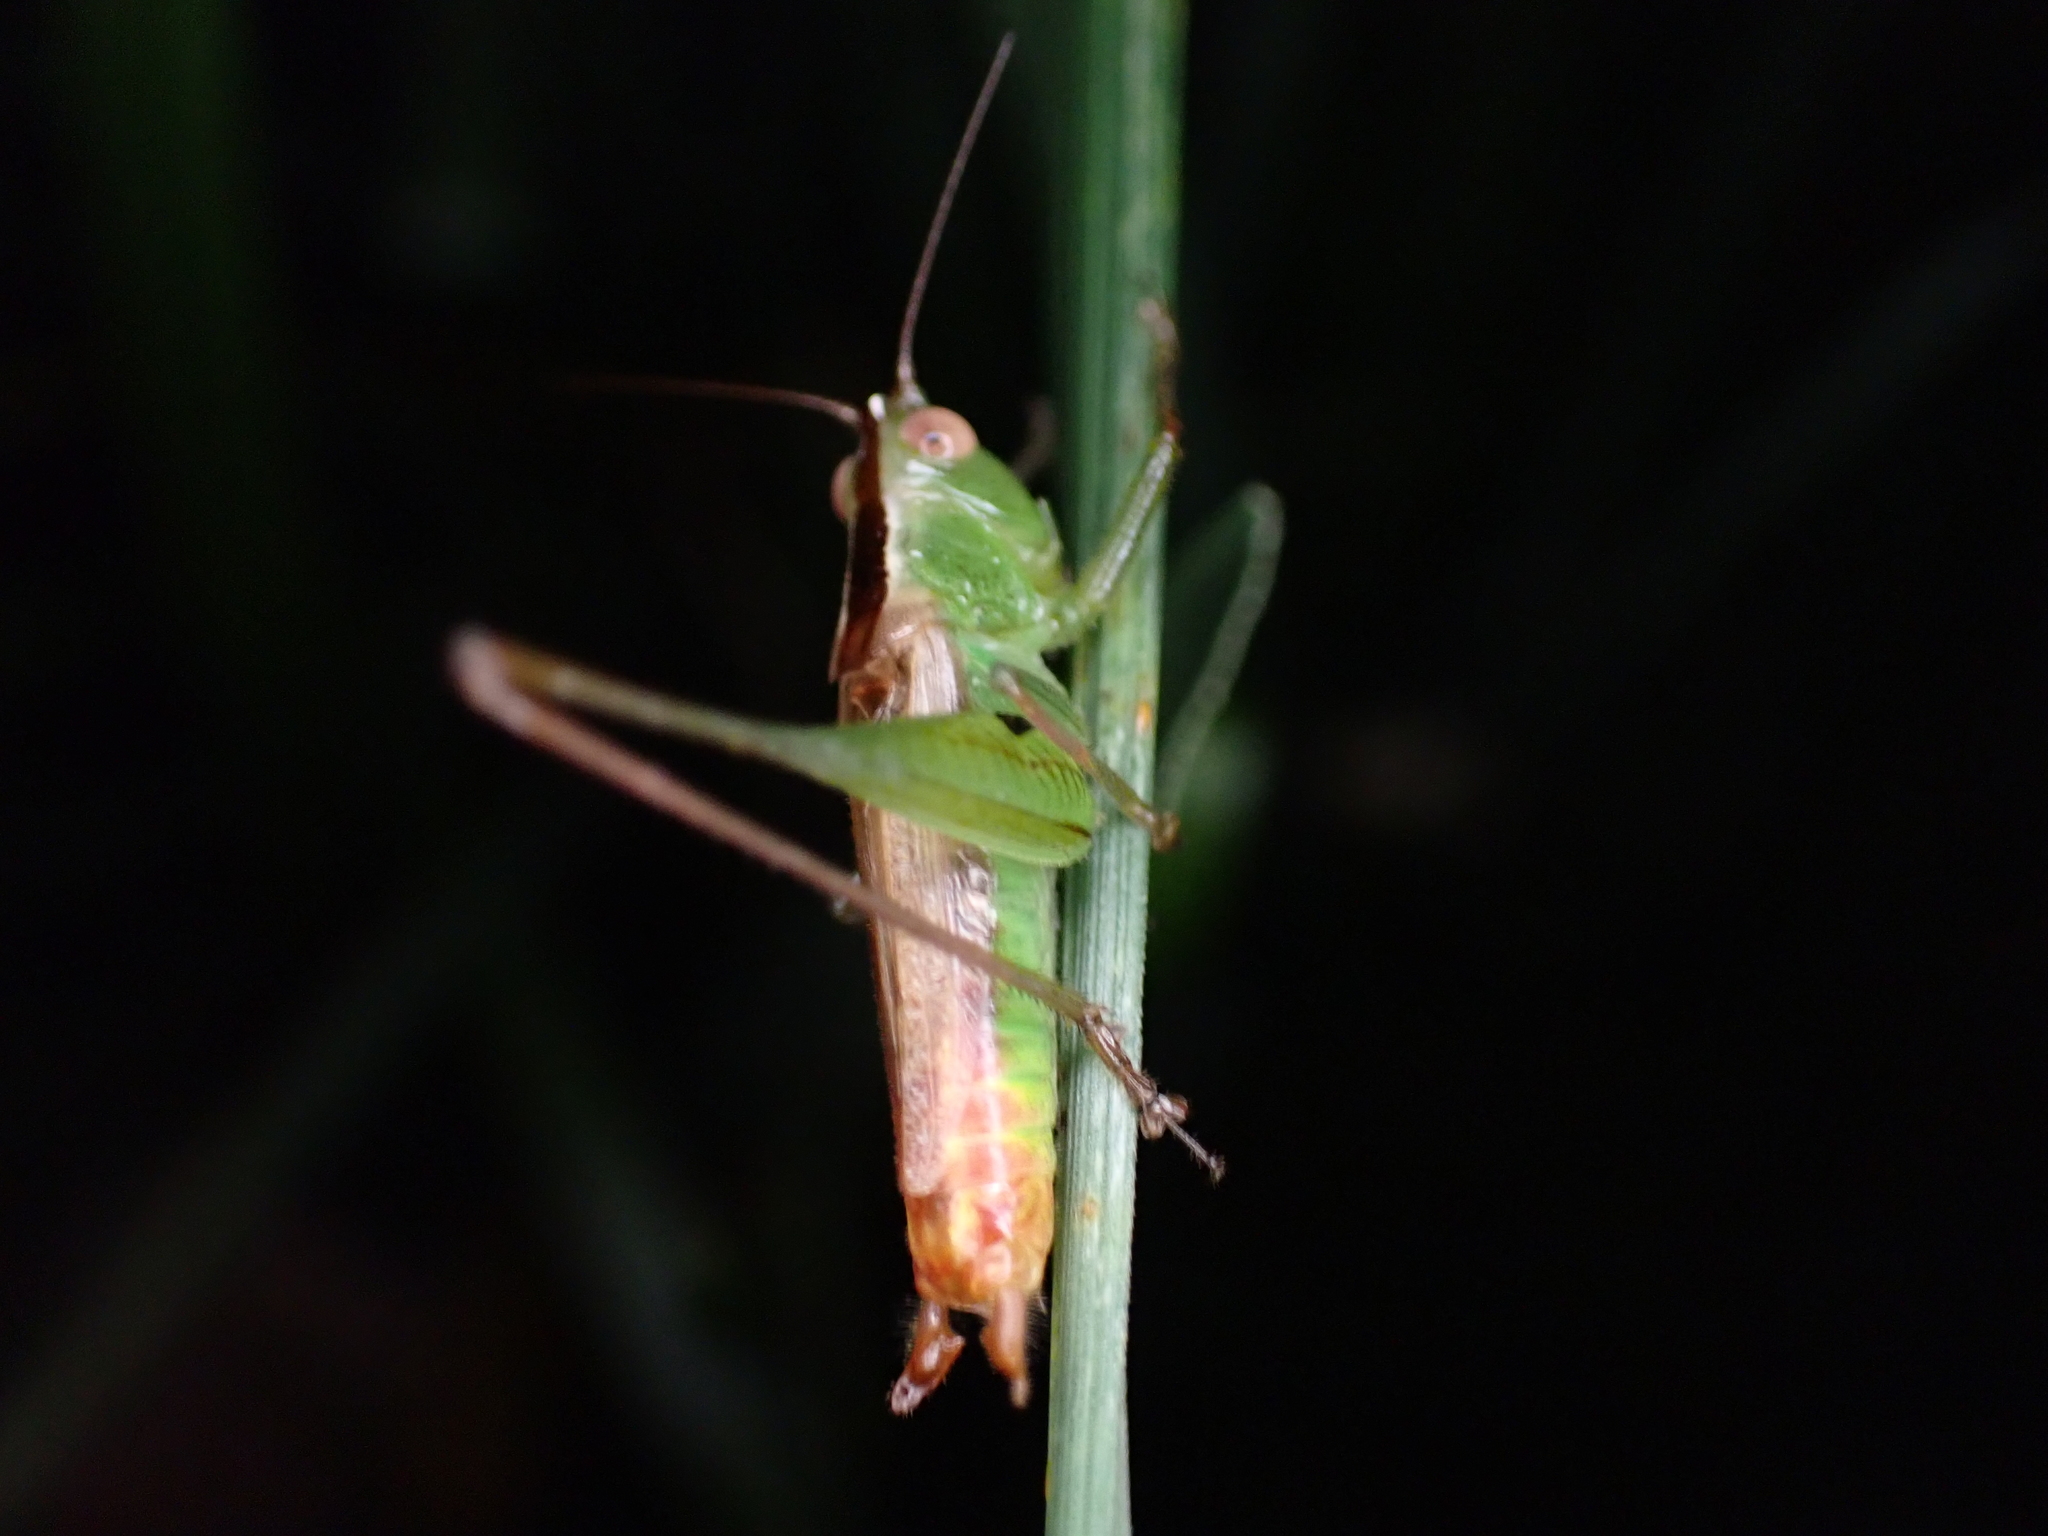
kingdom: Animalia
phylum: Arthropoda
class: Insecta
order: Orthoptera
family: Tettigoniidae
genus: Conocephalus
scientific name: Conocephalus brevipennis
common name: Short-winged meadow katydid
